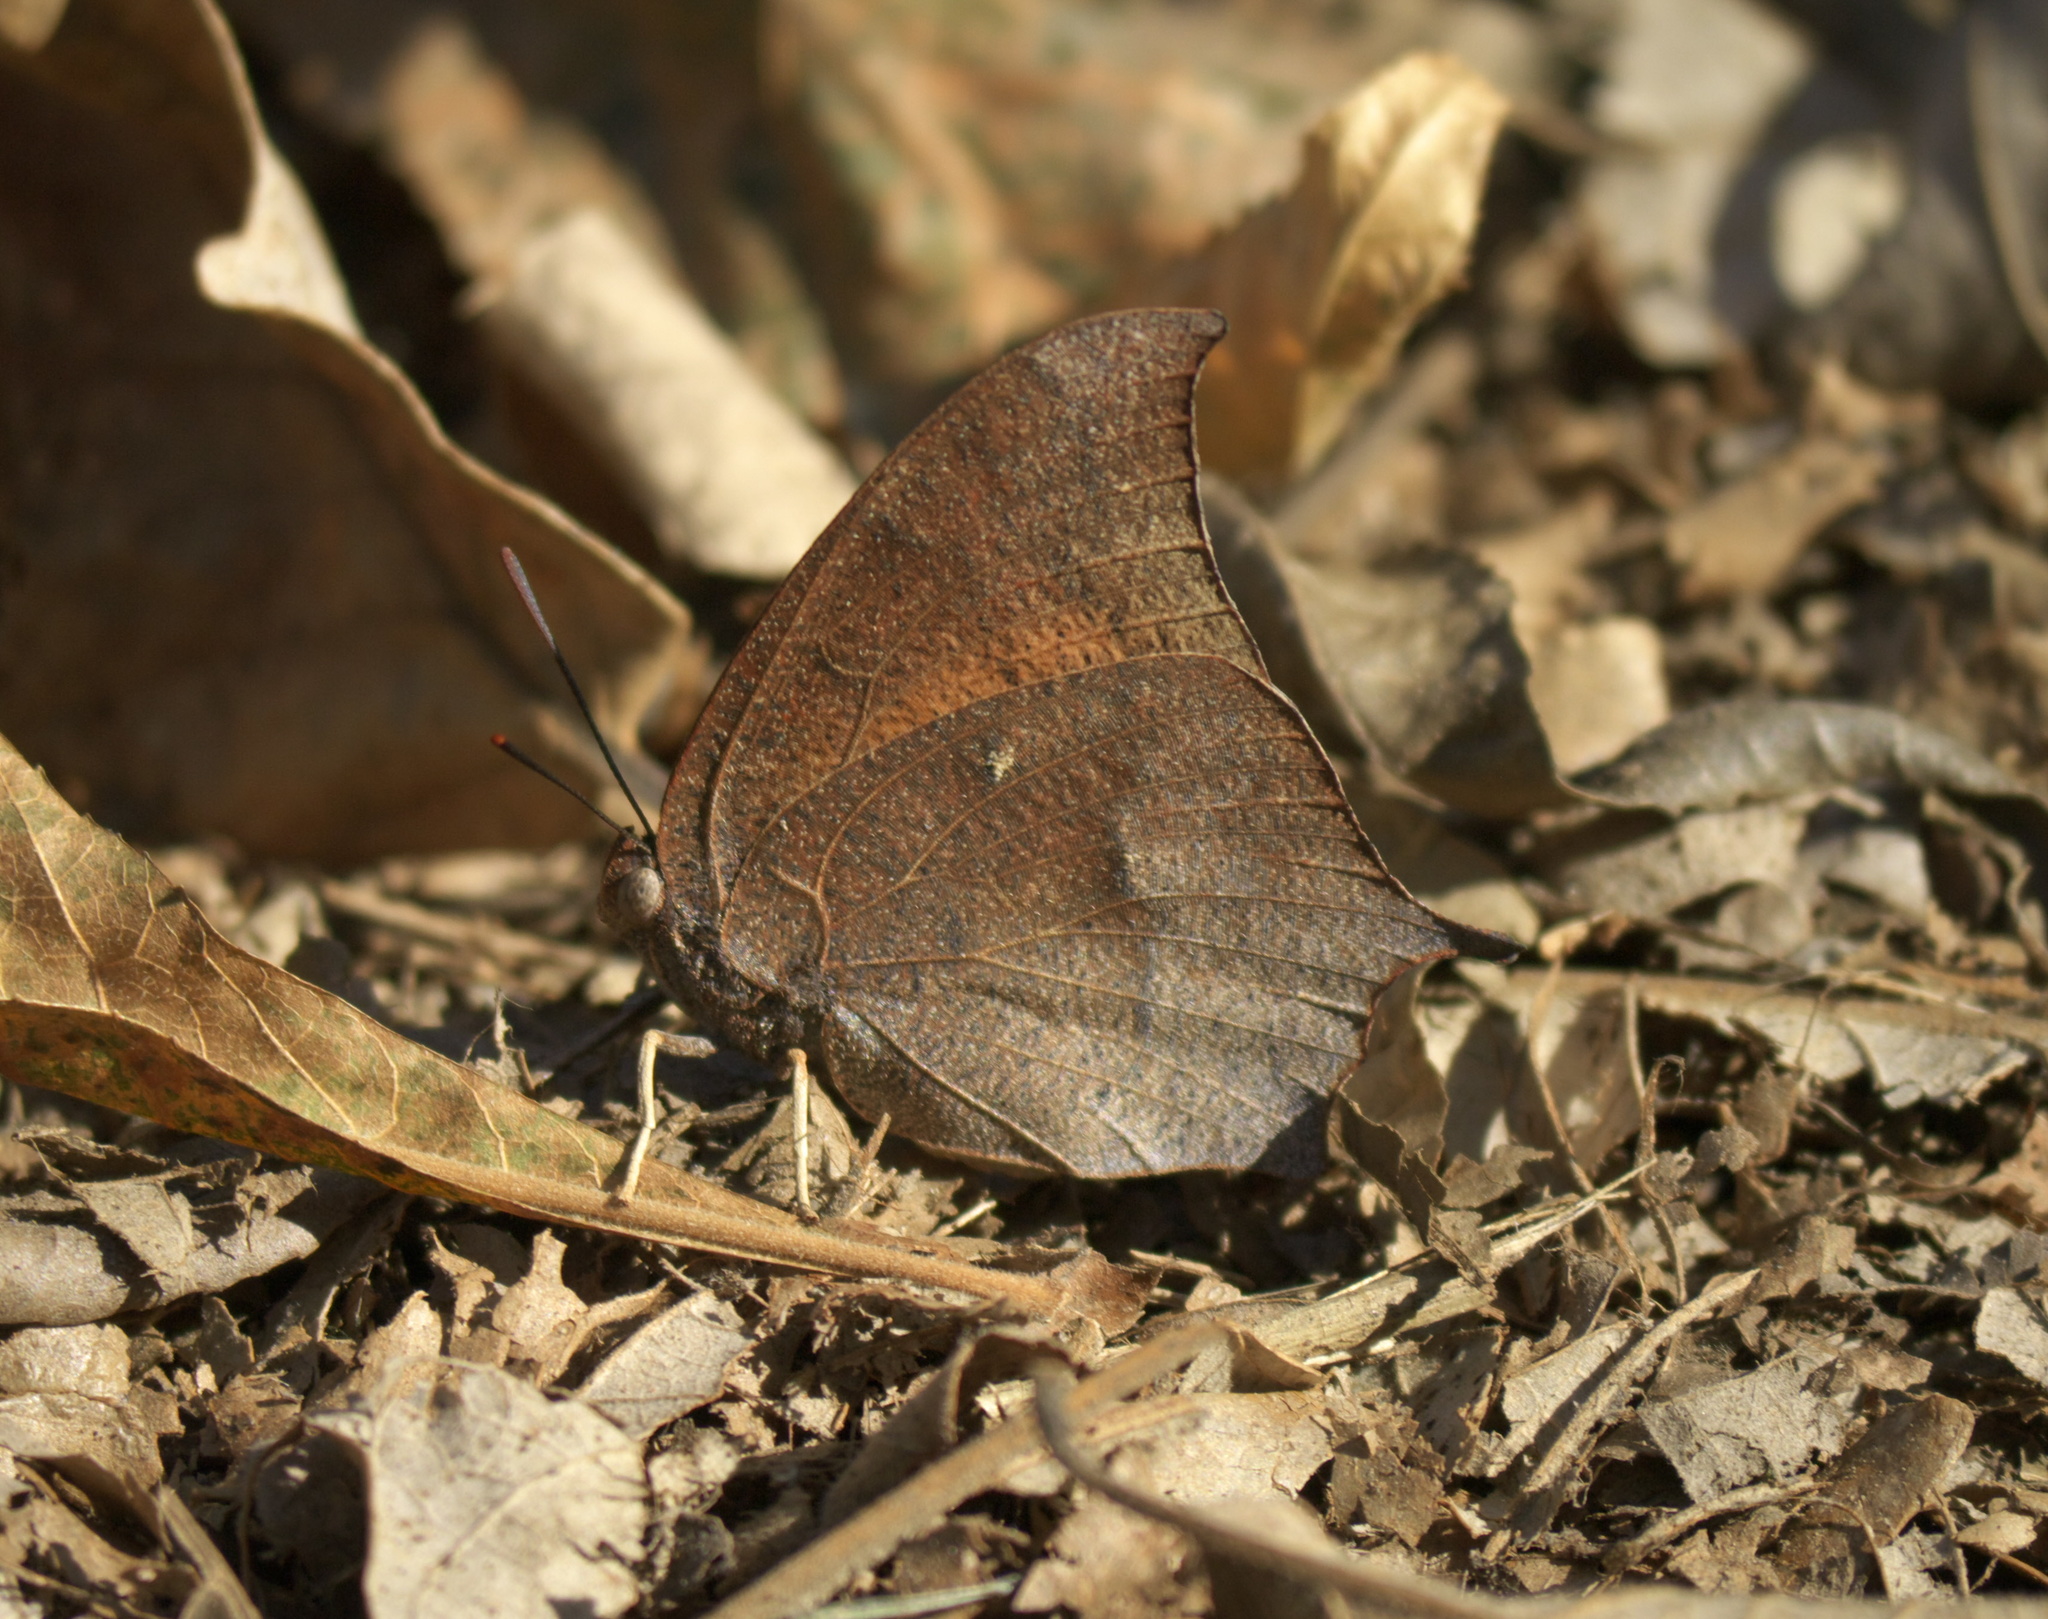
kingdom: Animalia
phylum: Arthropoda
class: Insecta
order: Lepidoptera
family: Nymphalidae
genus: Anaea
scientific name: Anaea andria
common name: Goatweed leafwing
